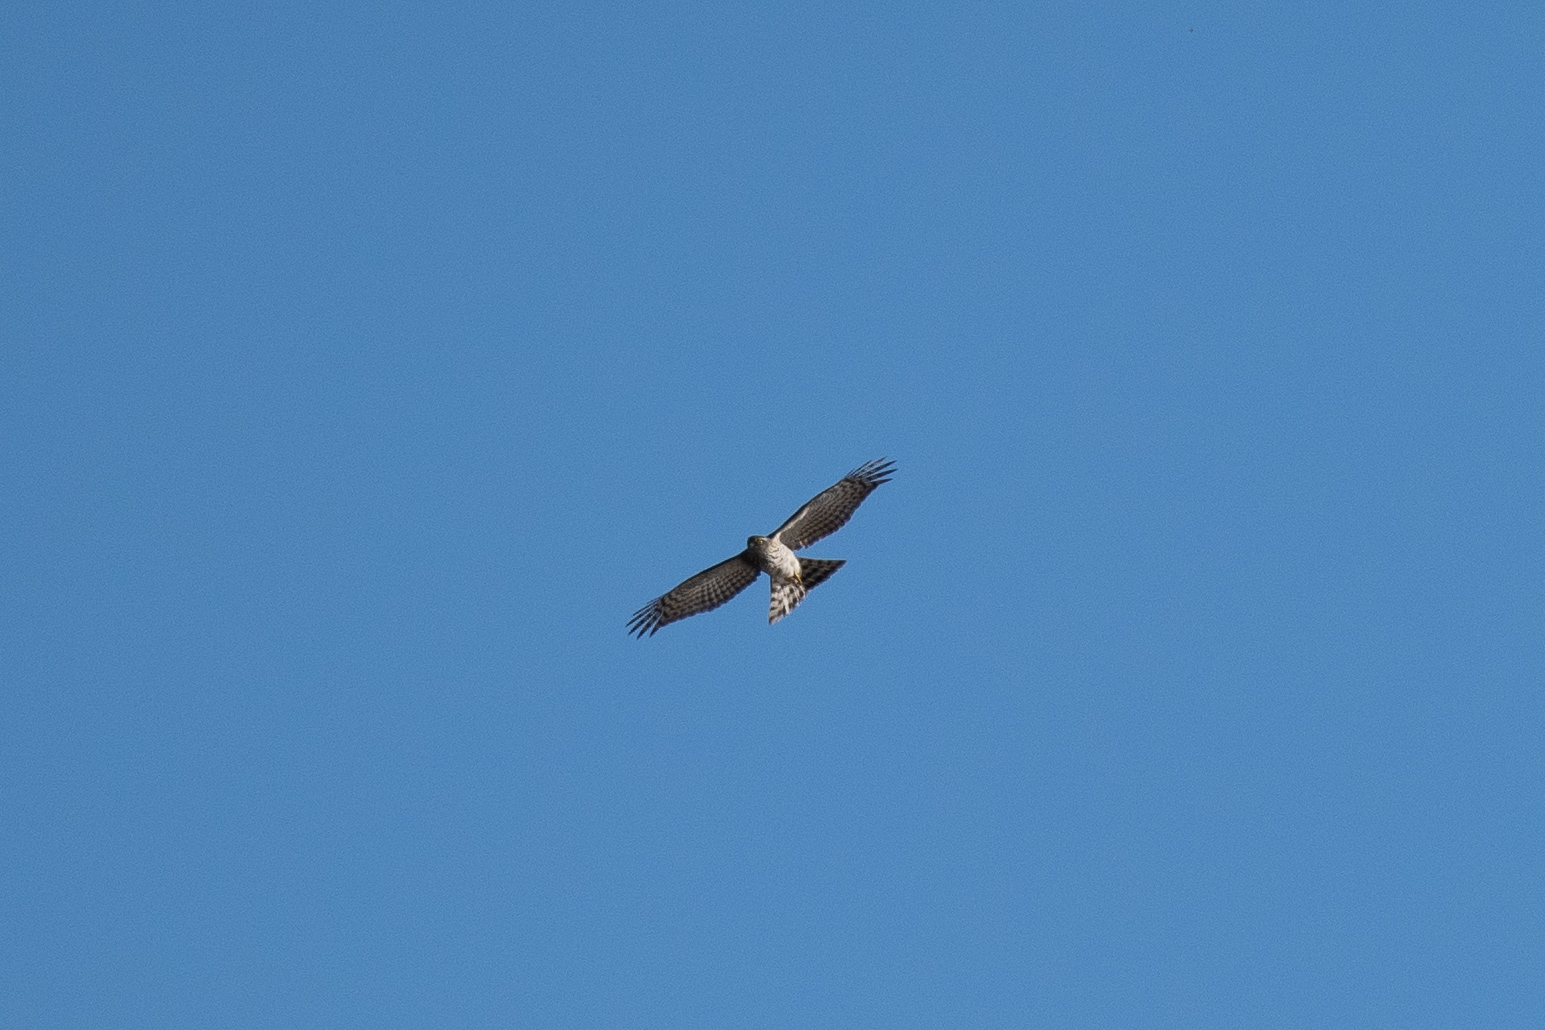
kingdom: Animalia
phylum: Chordata
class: Aves
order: Accipitriformes
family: Accipitridae
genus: Accipiter
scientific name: Accipiter nisus
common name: Eurasian sparrowhawk
